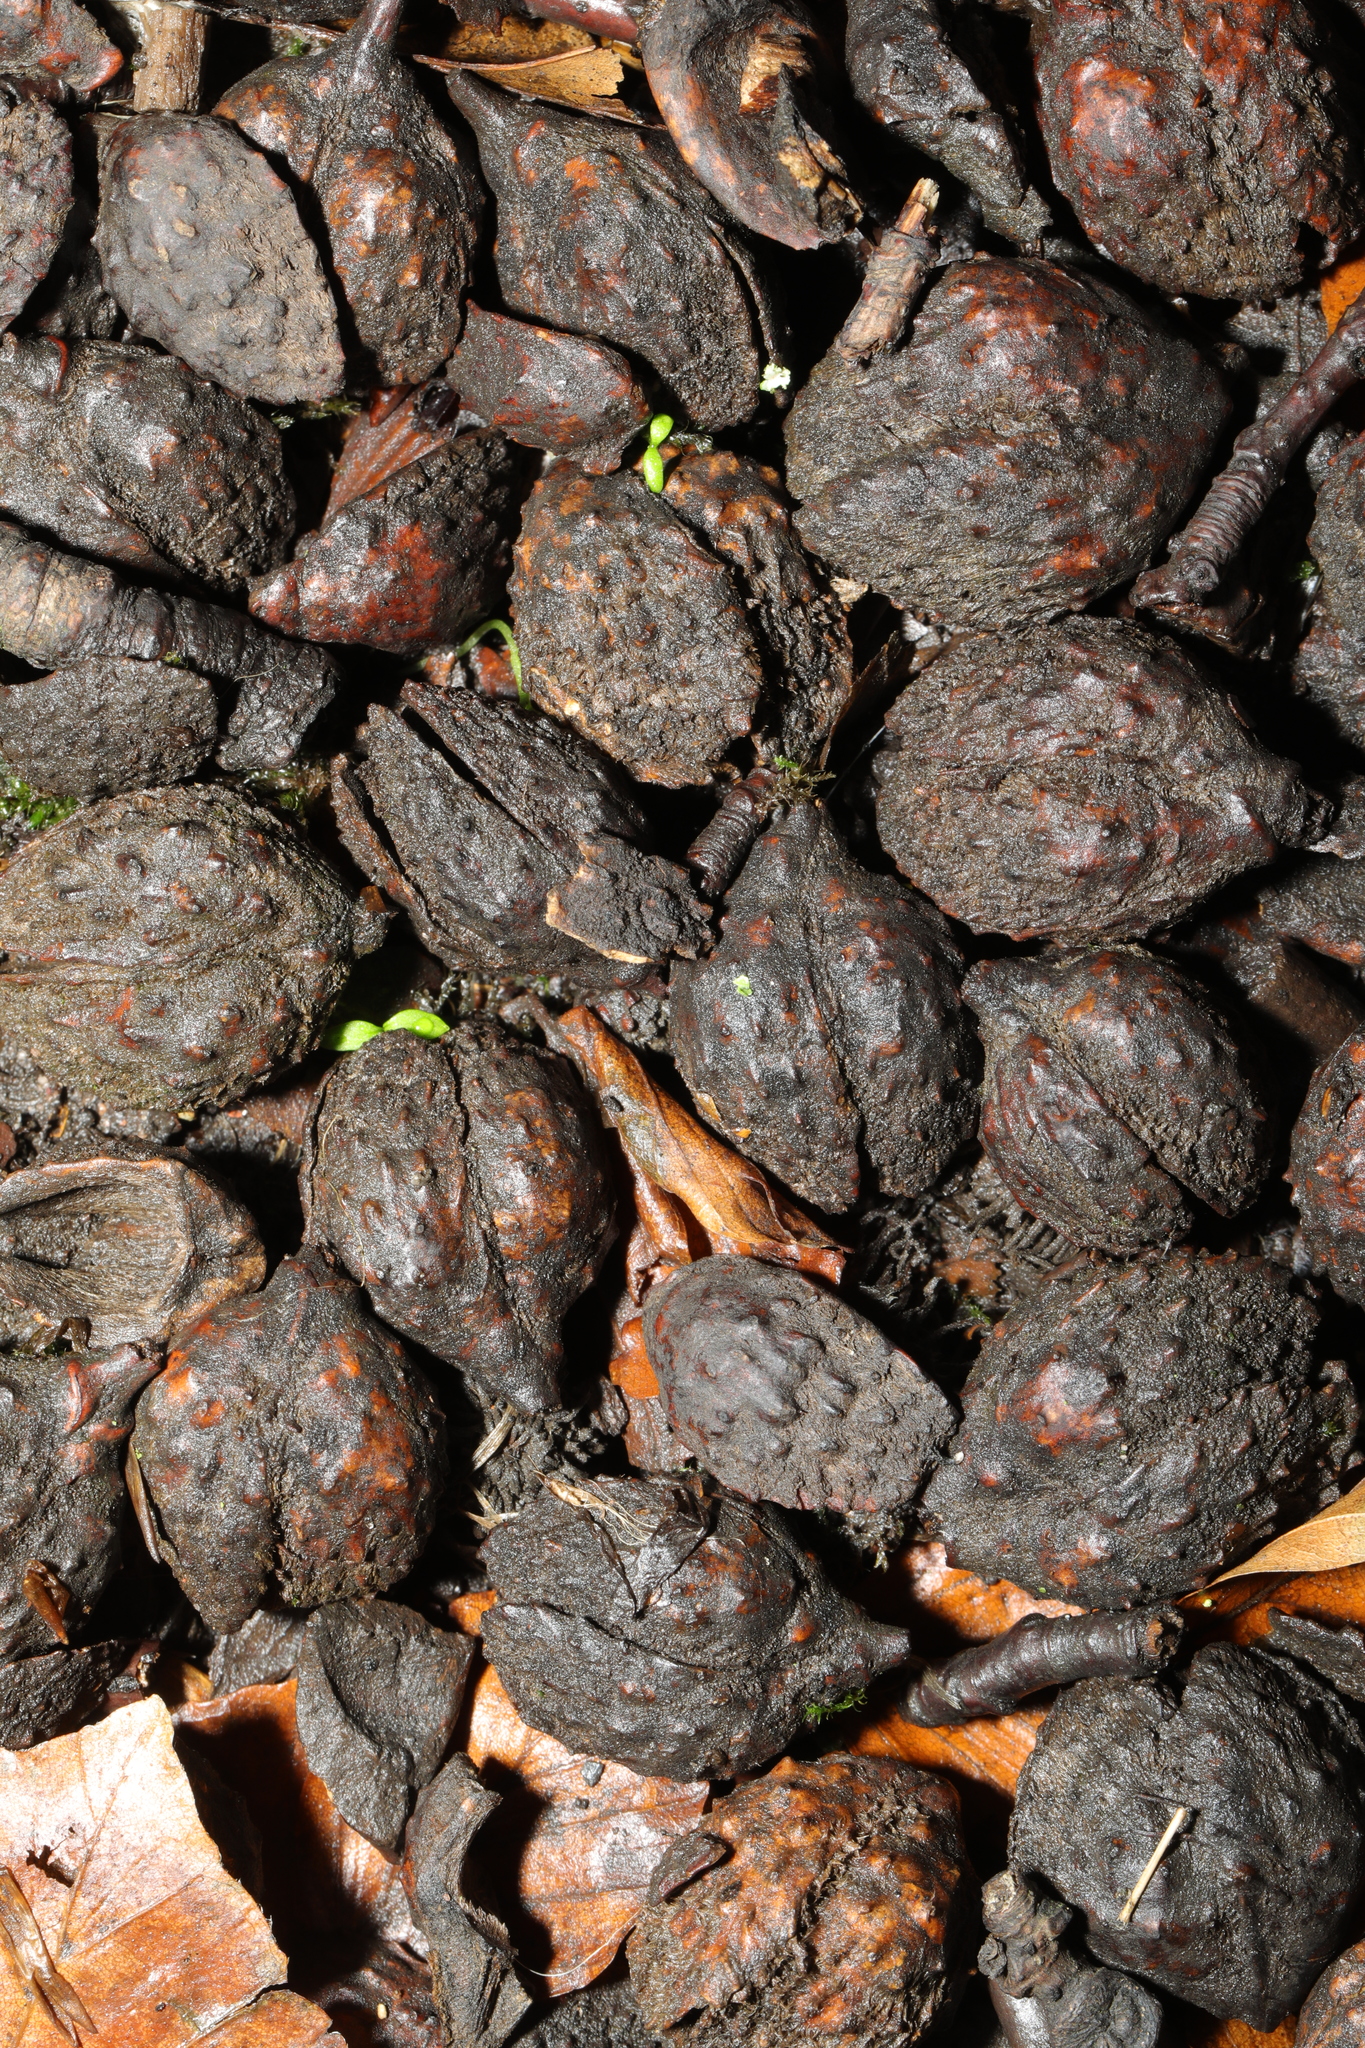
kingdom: Plantae
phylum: Tracheophyta
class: Magnoliopsida
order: Fagales
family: Fagaceae
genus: Fagus
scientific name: Fagus sylvatica
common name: Beech
